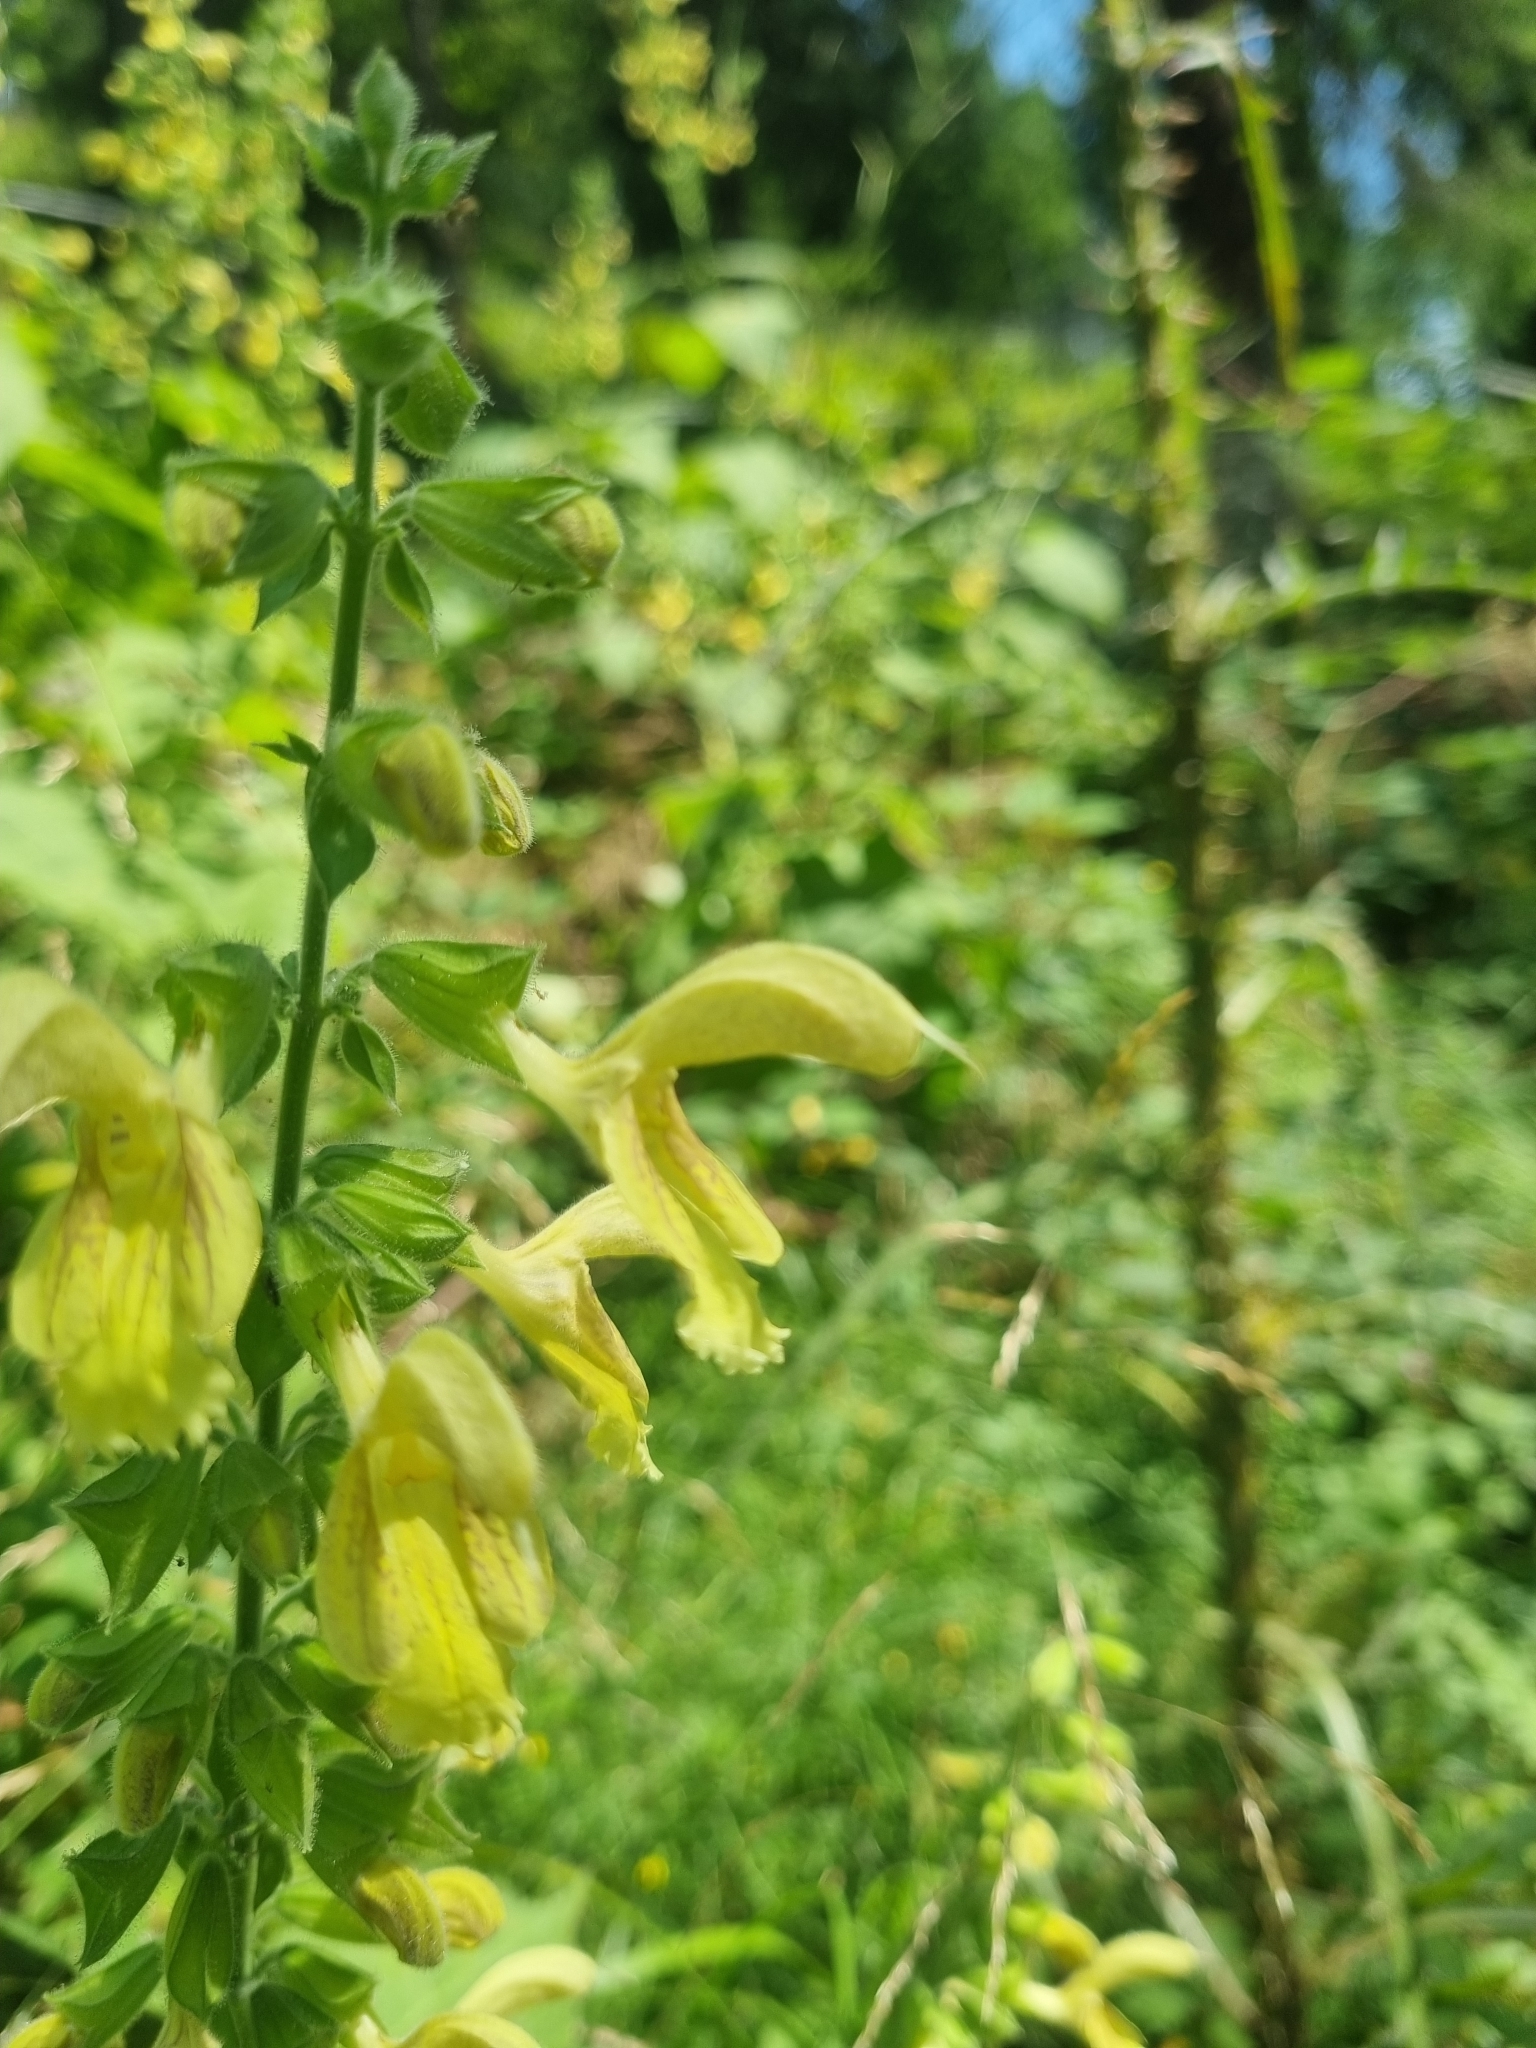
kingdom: Plantae
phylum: Tracheophyta
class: Magnoliopsida
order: Lamiales
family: Lamiaceae
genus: Salvia
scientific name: Salvia glutinosa
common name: Sticky clary
